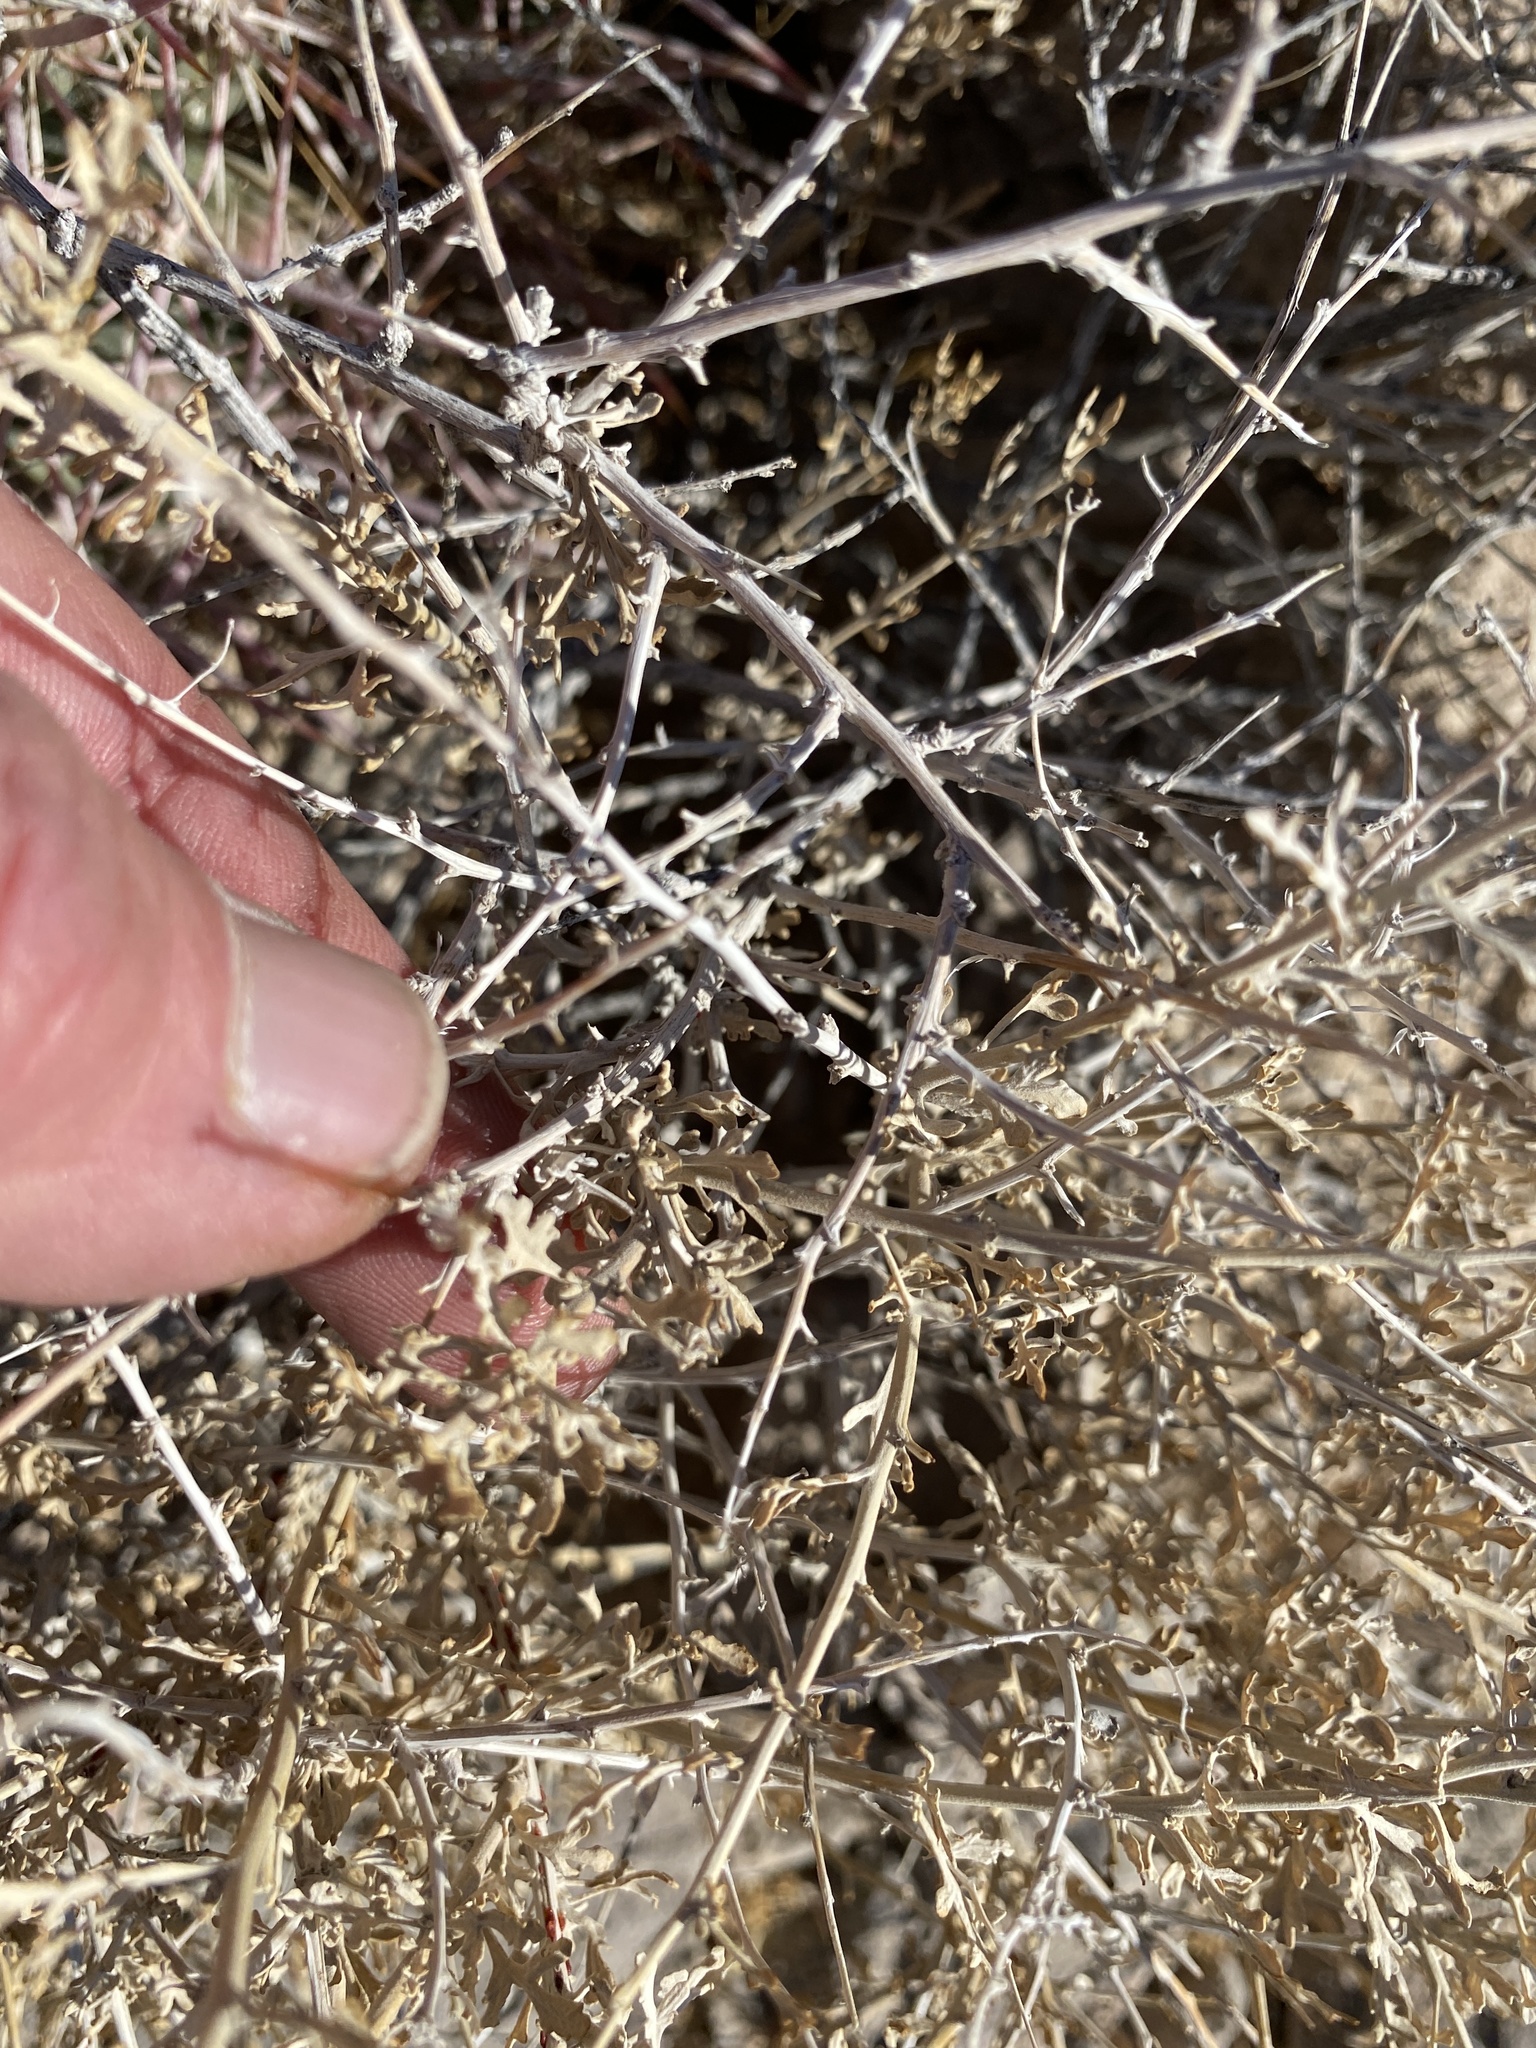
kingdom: Plantae
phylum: Tracheophyta
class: Magnoliopsida
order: Asterales
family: Asteraceae
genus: Ambrosia
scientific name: Ambrosia dumosa
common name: Bur-sage
